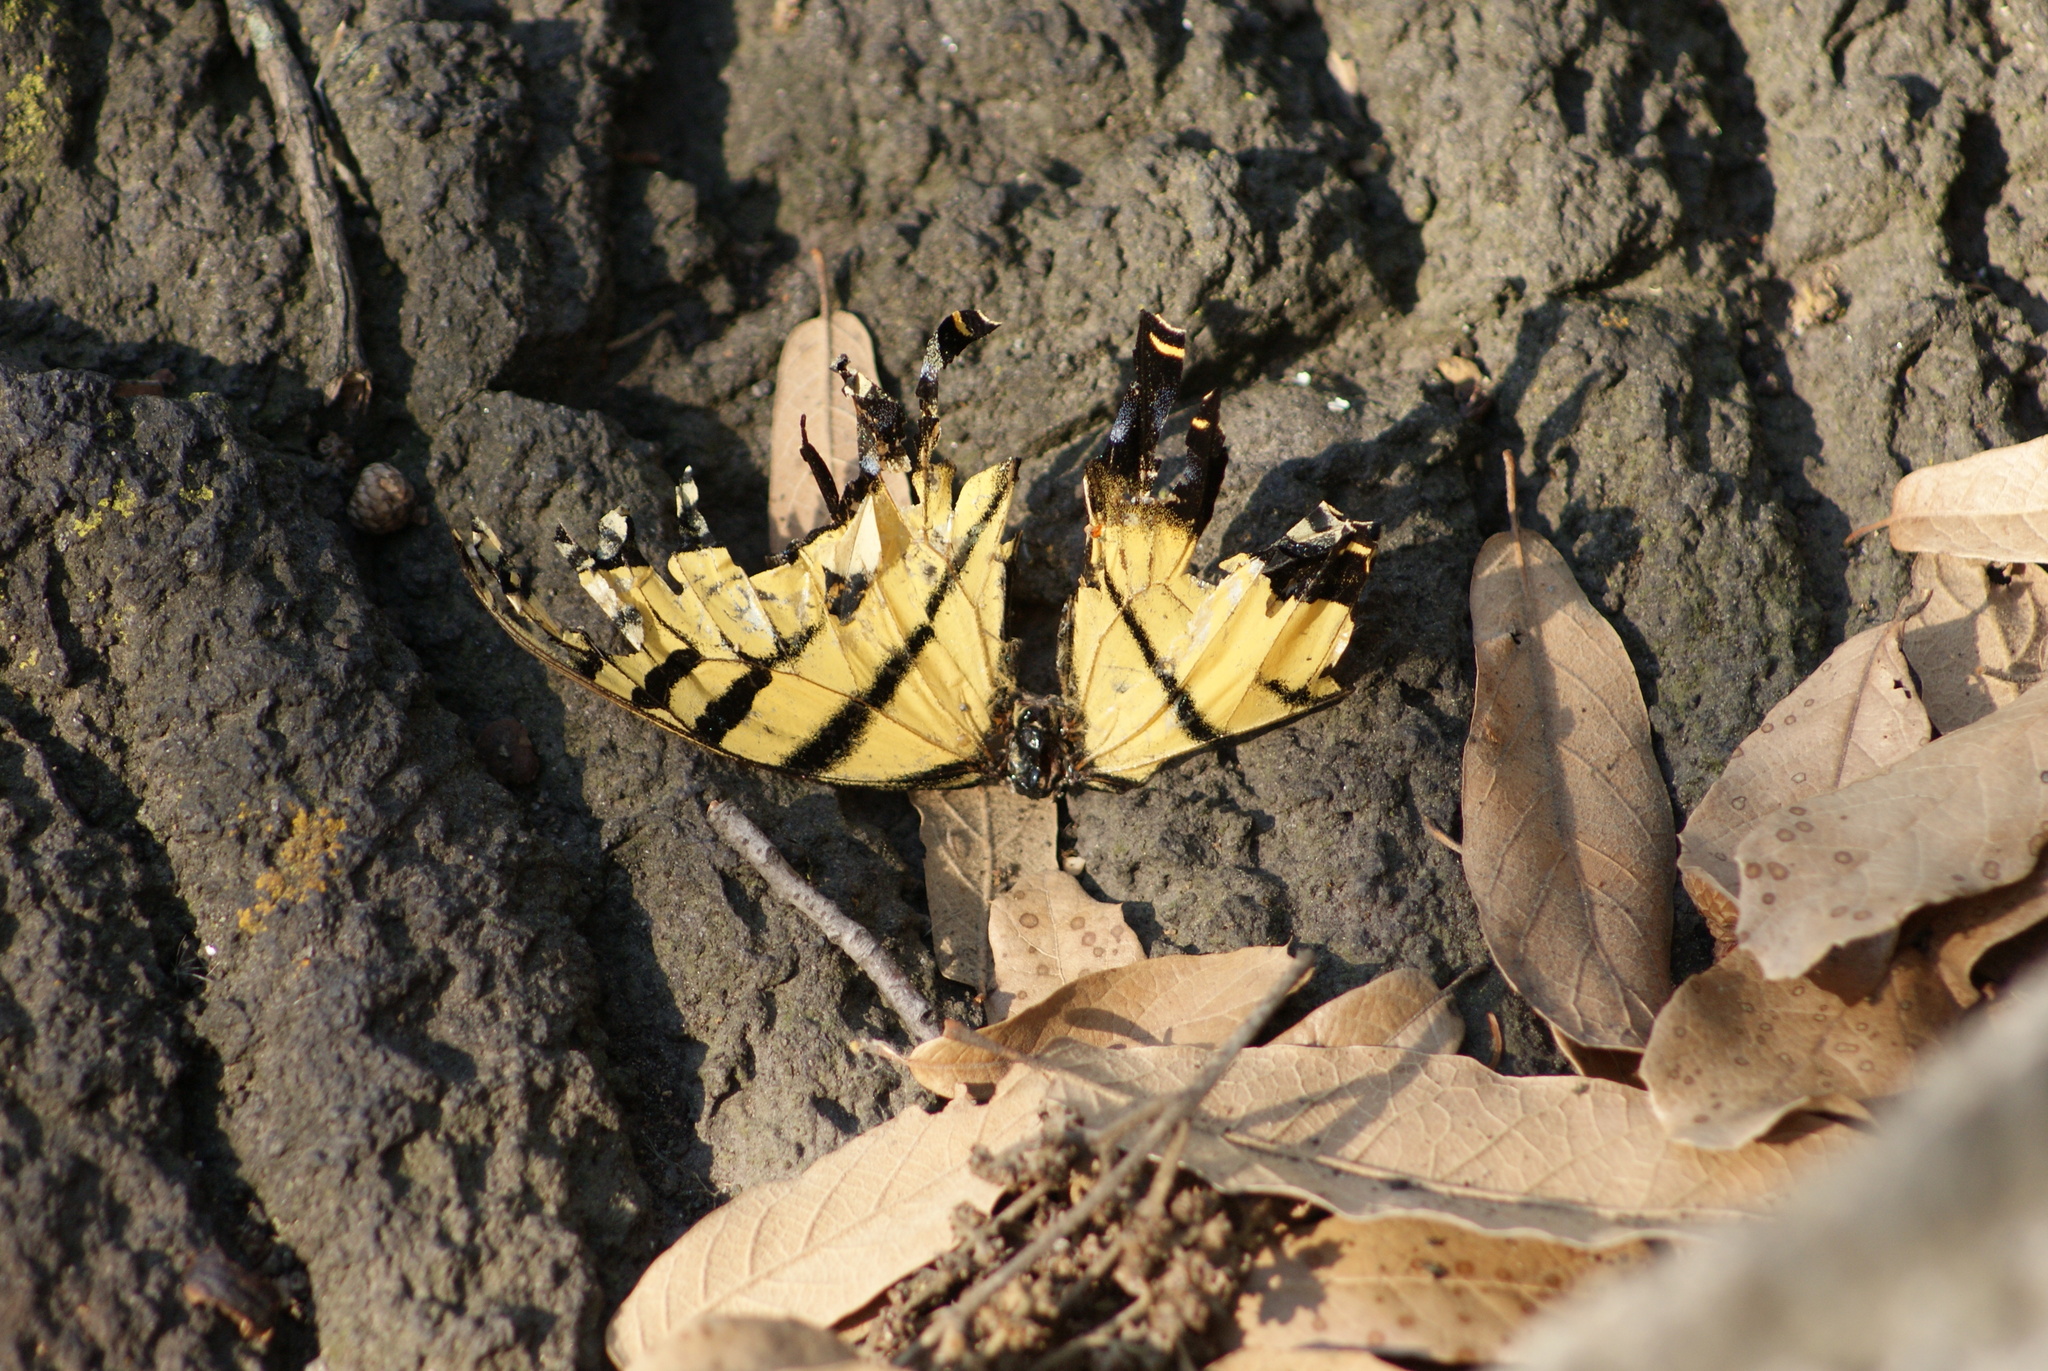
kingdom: Animalia
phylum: Arthropoda
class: Insecta
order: Lepidoptera
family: Papilionidae
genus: Papilio
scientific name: Papilio multicaudata
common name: Two-tailed tiger swallowtail
